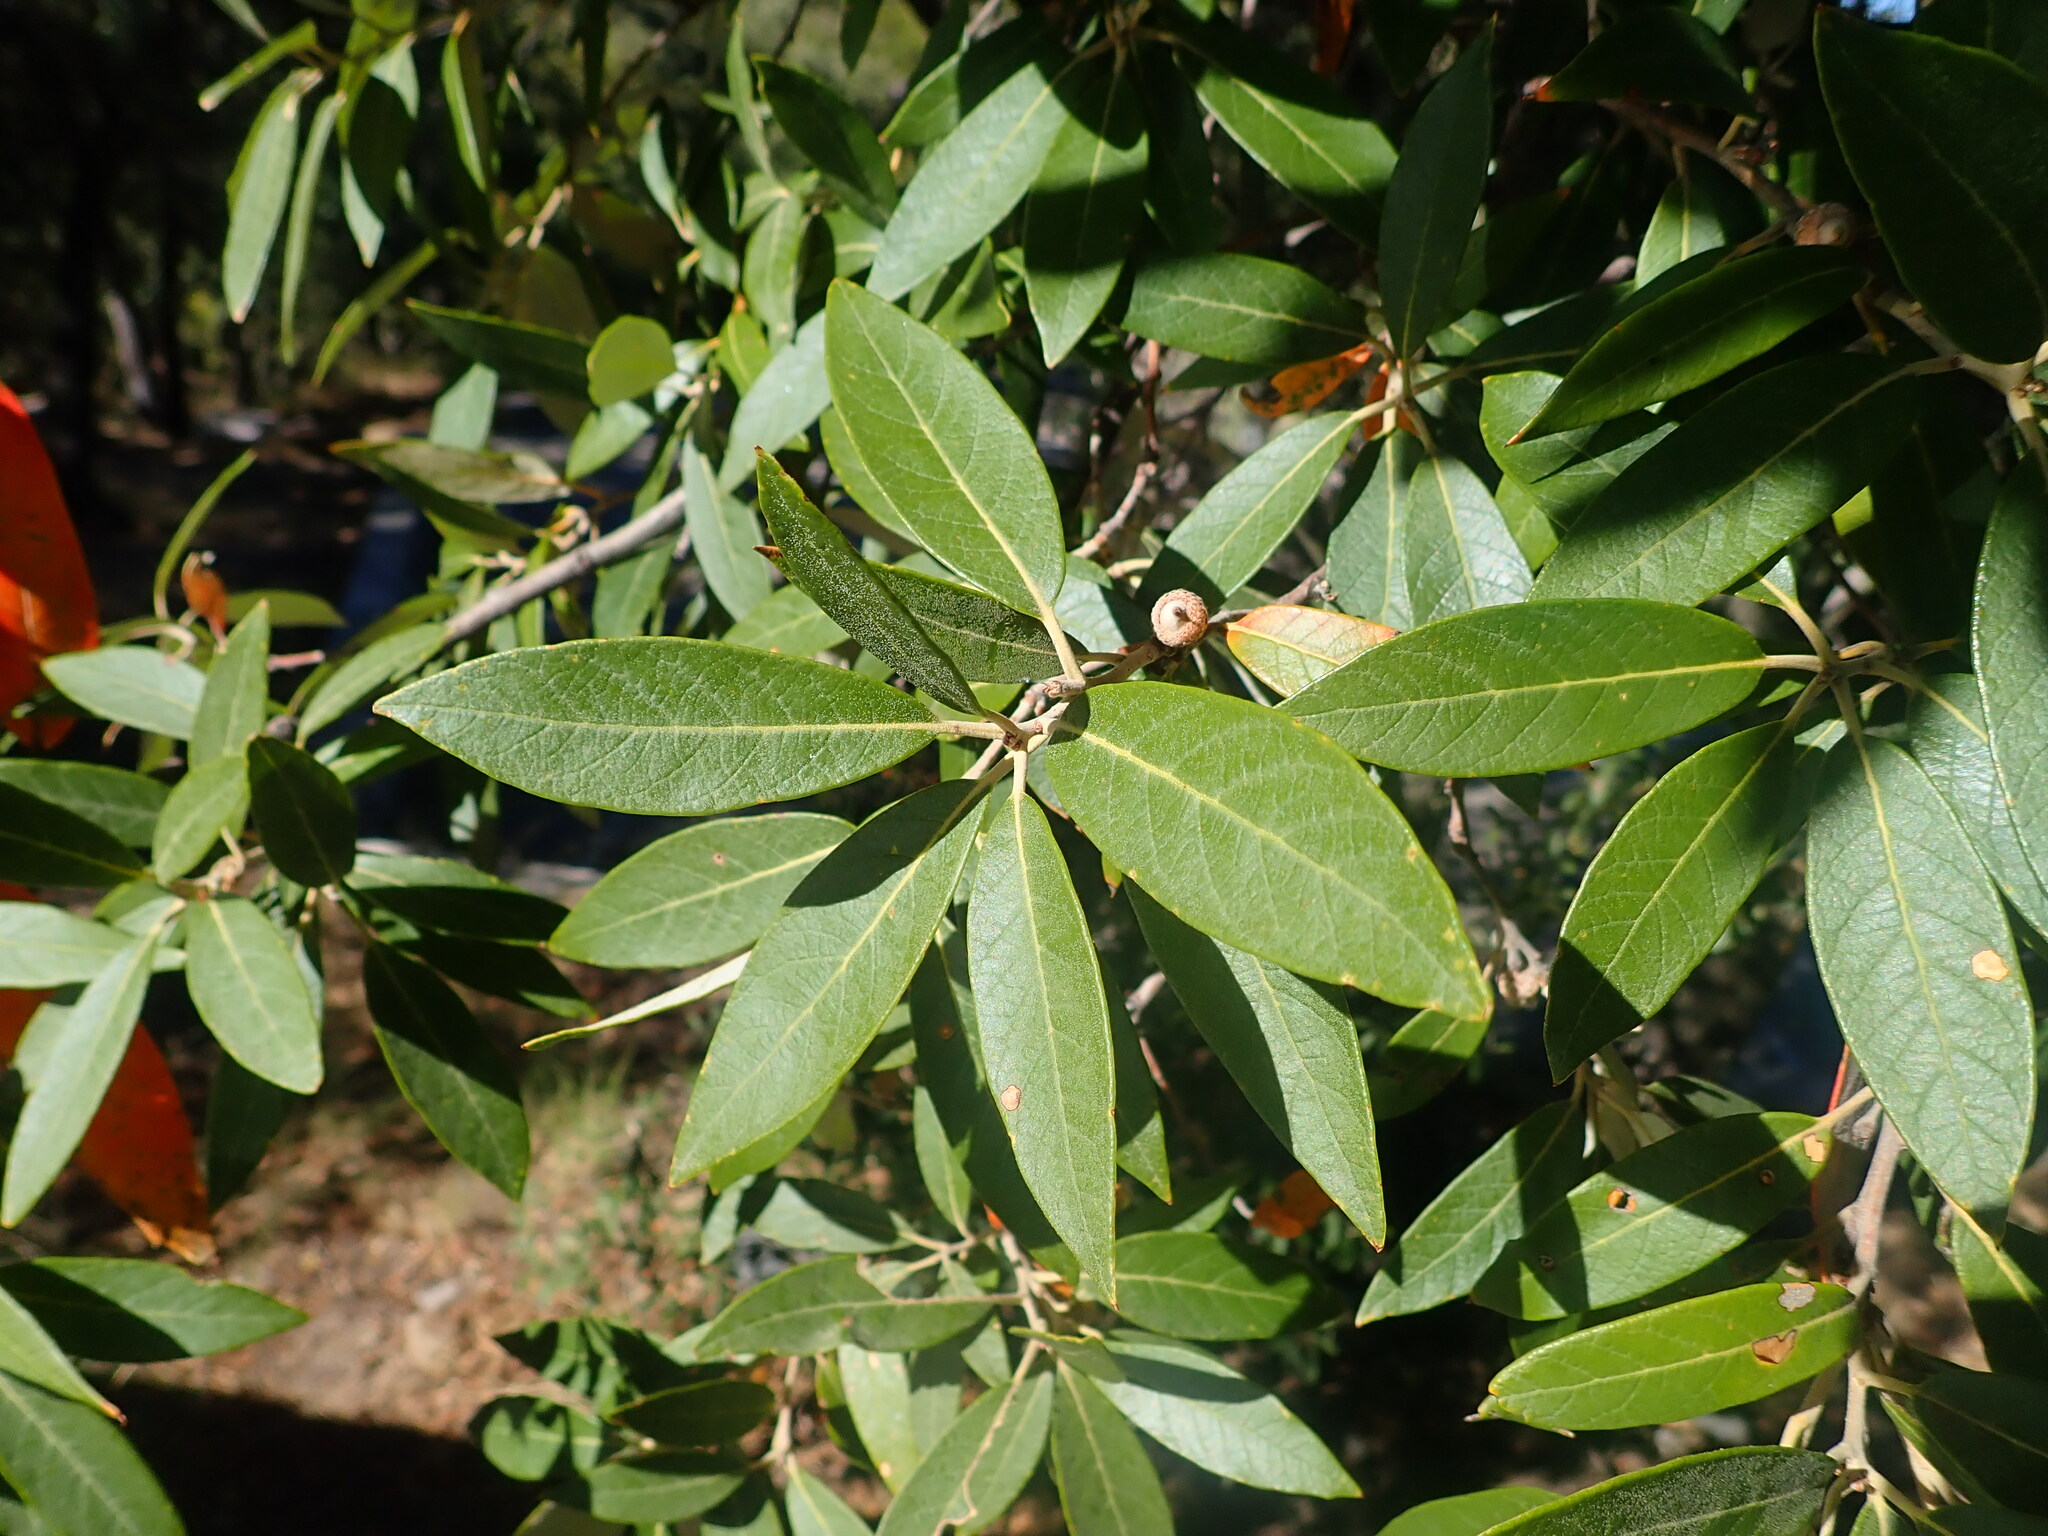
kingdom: Plantae
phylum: Tracheophyta
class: Magnoliopsida
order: Fagales
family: Fagaceae
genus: Quercus
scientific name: Quercus hypoleucoides
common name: Silverleaf oak
